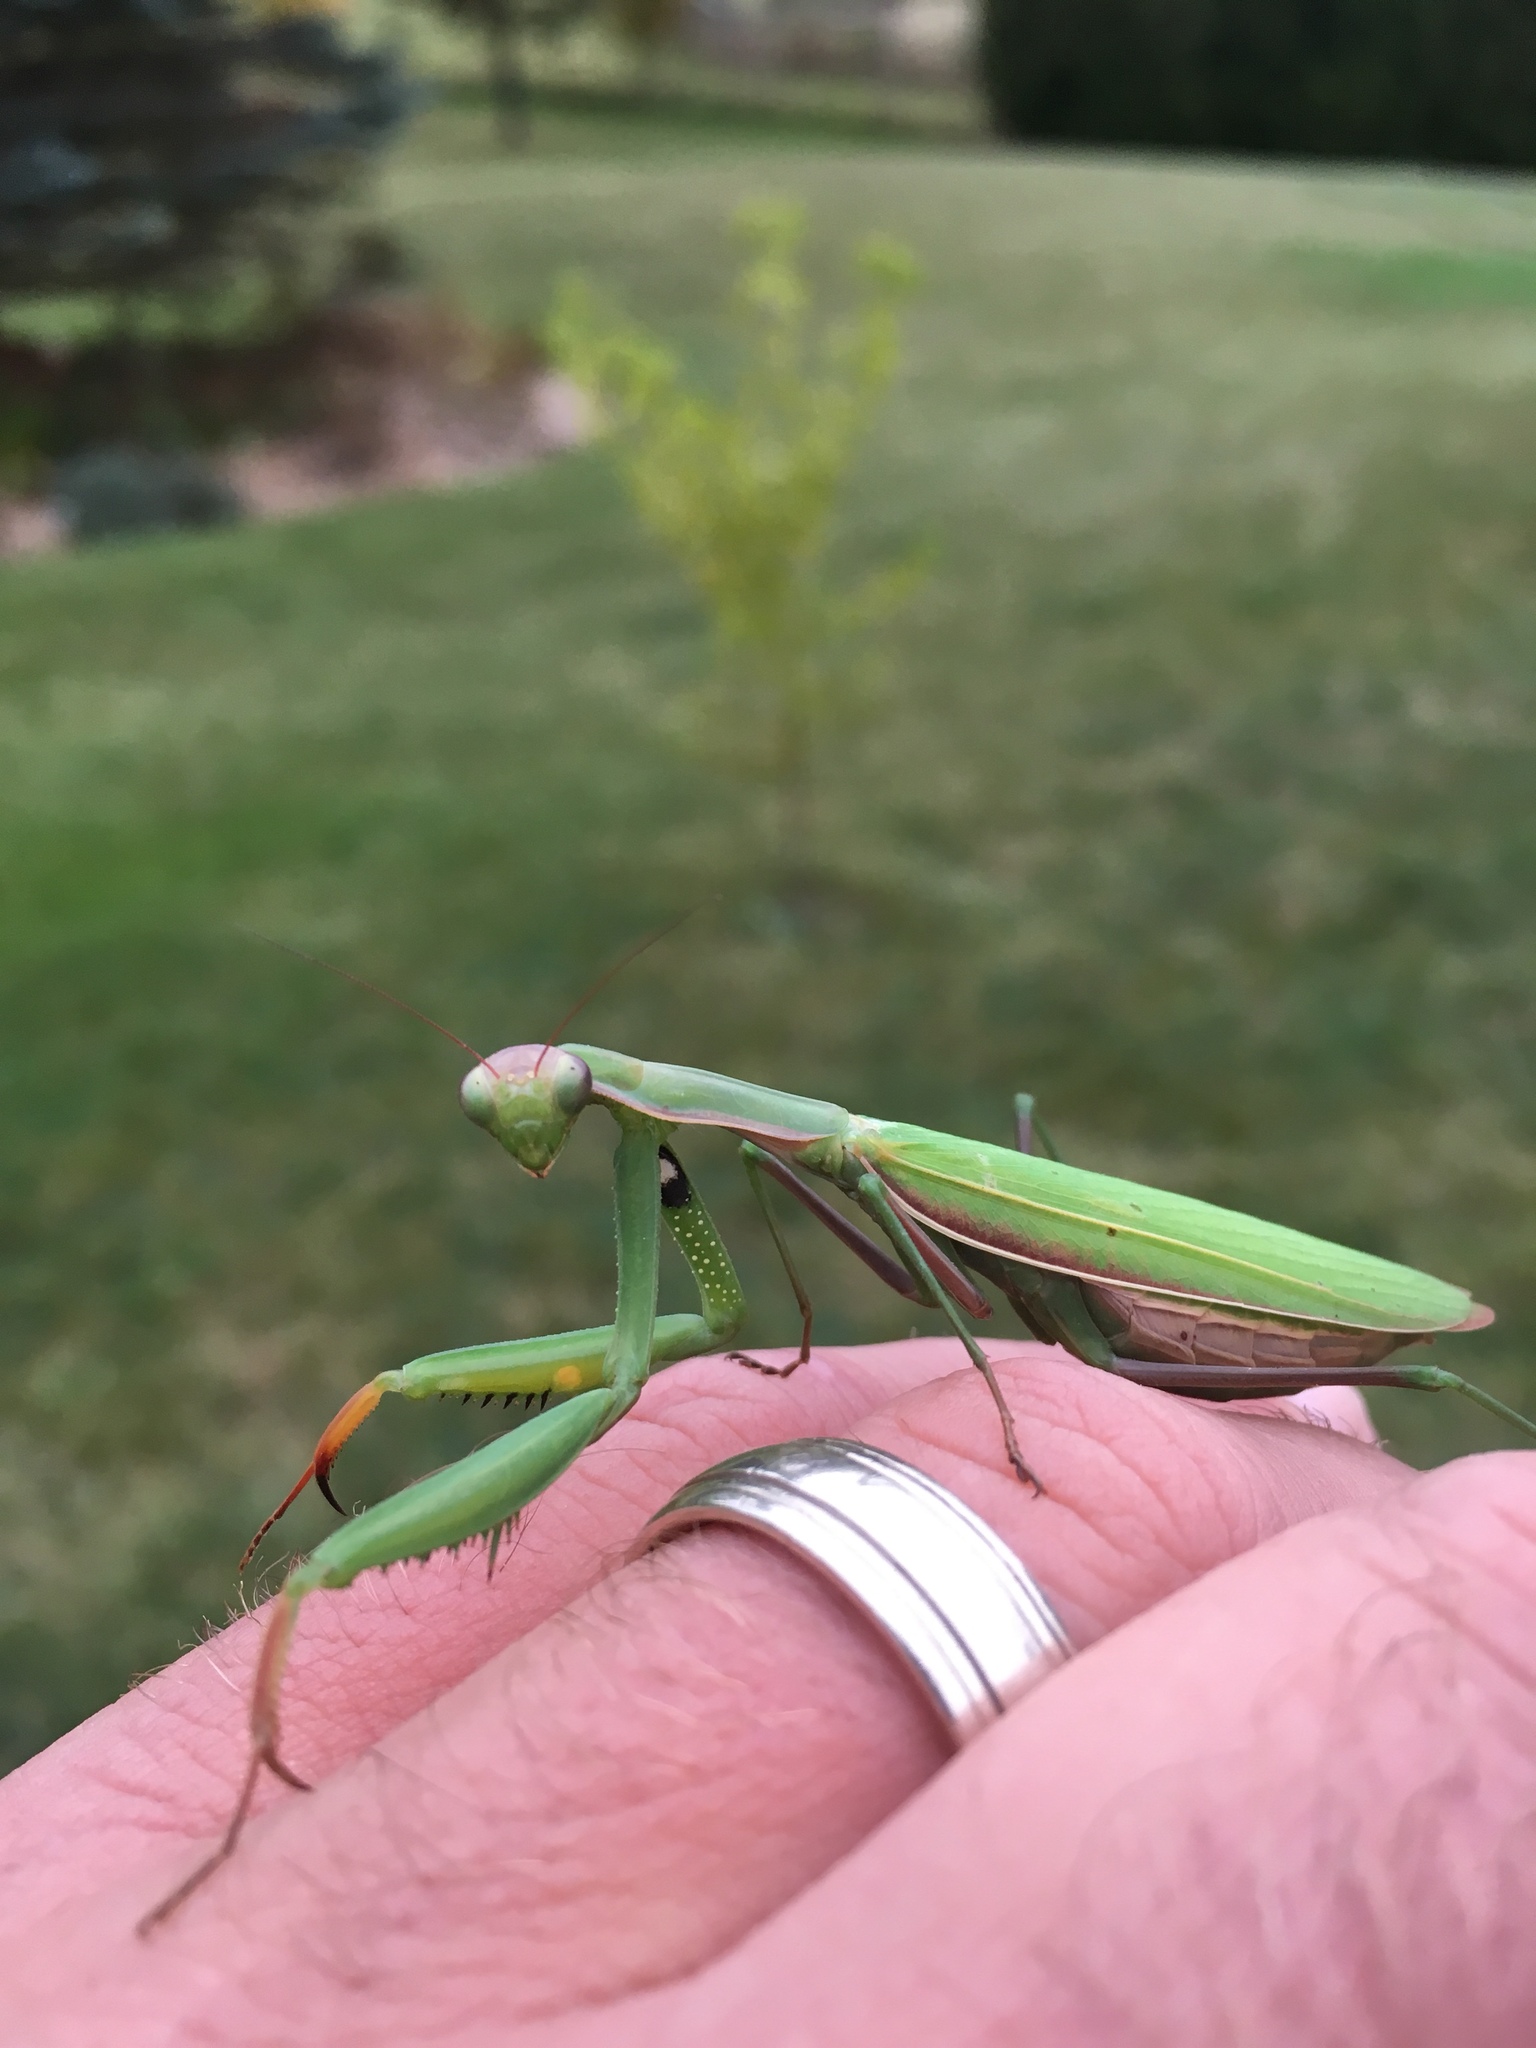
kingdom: Animalia
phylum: Arthropoda
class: Insecta
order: Mantodea
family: Mantidae
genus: Mantis
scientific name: Mantis religiosa
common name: Praying mantis
